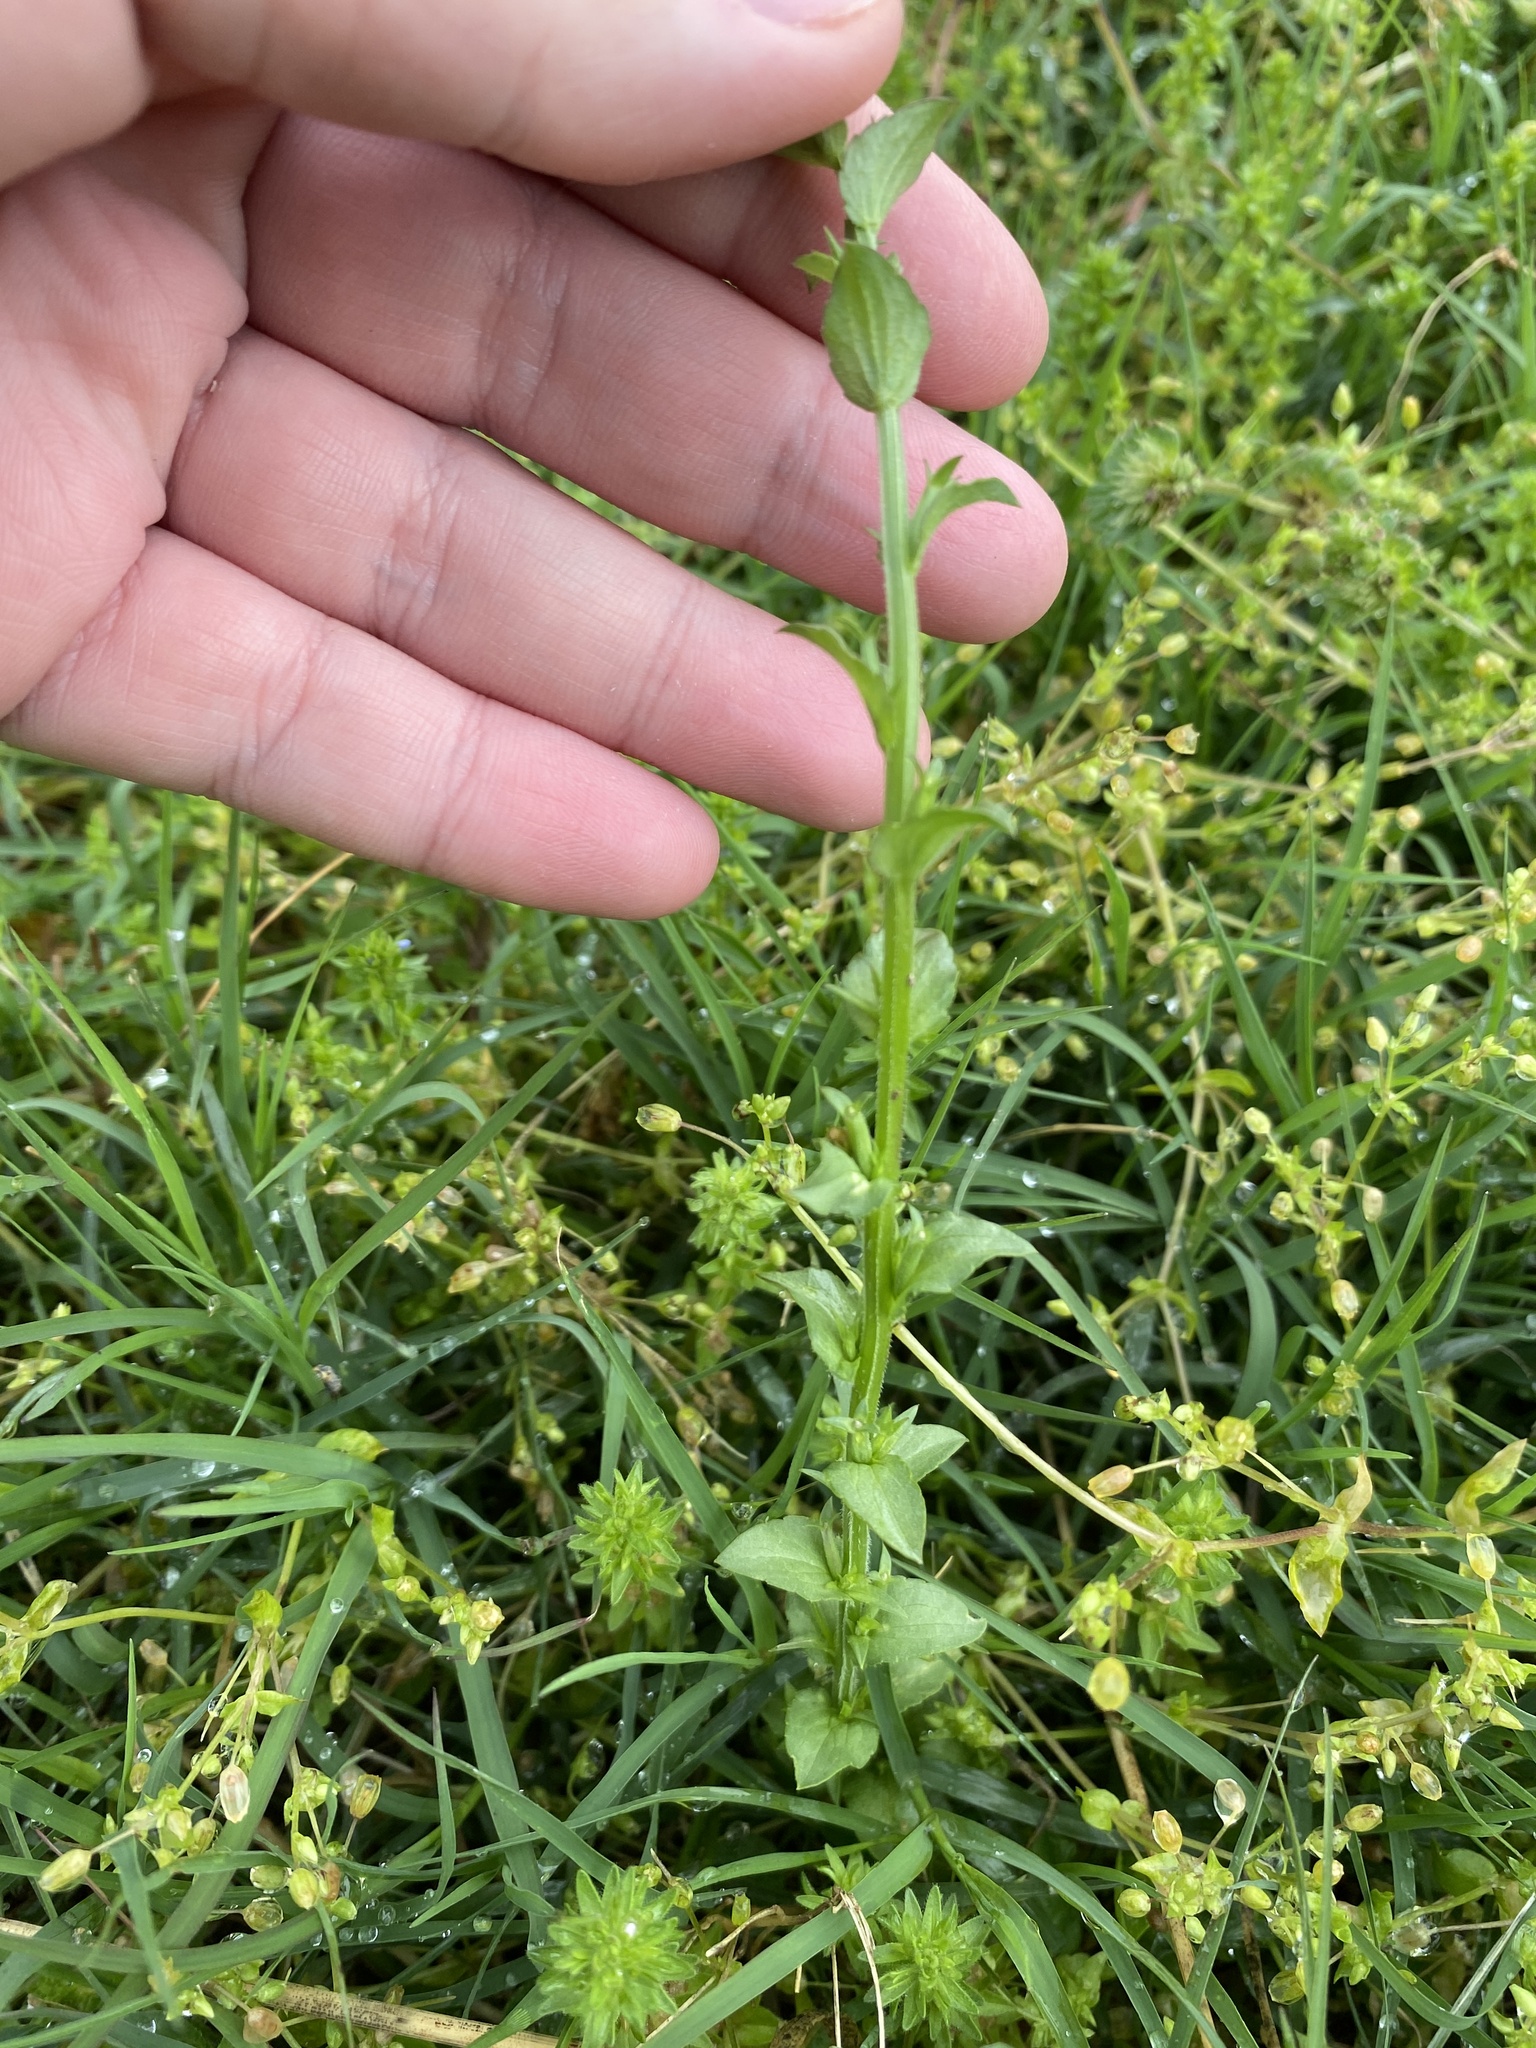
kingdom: Plantae
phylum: Tracheophyta
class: Magnoliopsida
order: Asterales
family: Campanulaceae
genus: Triodanis
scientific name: Triodanis biflora
